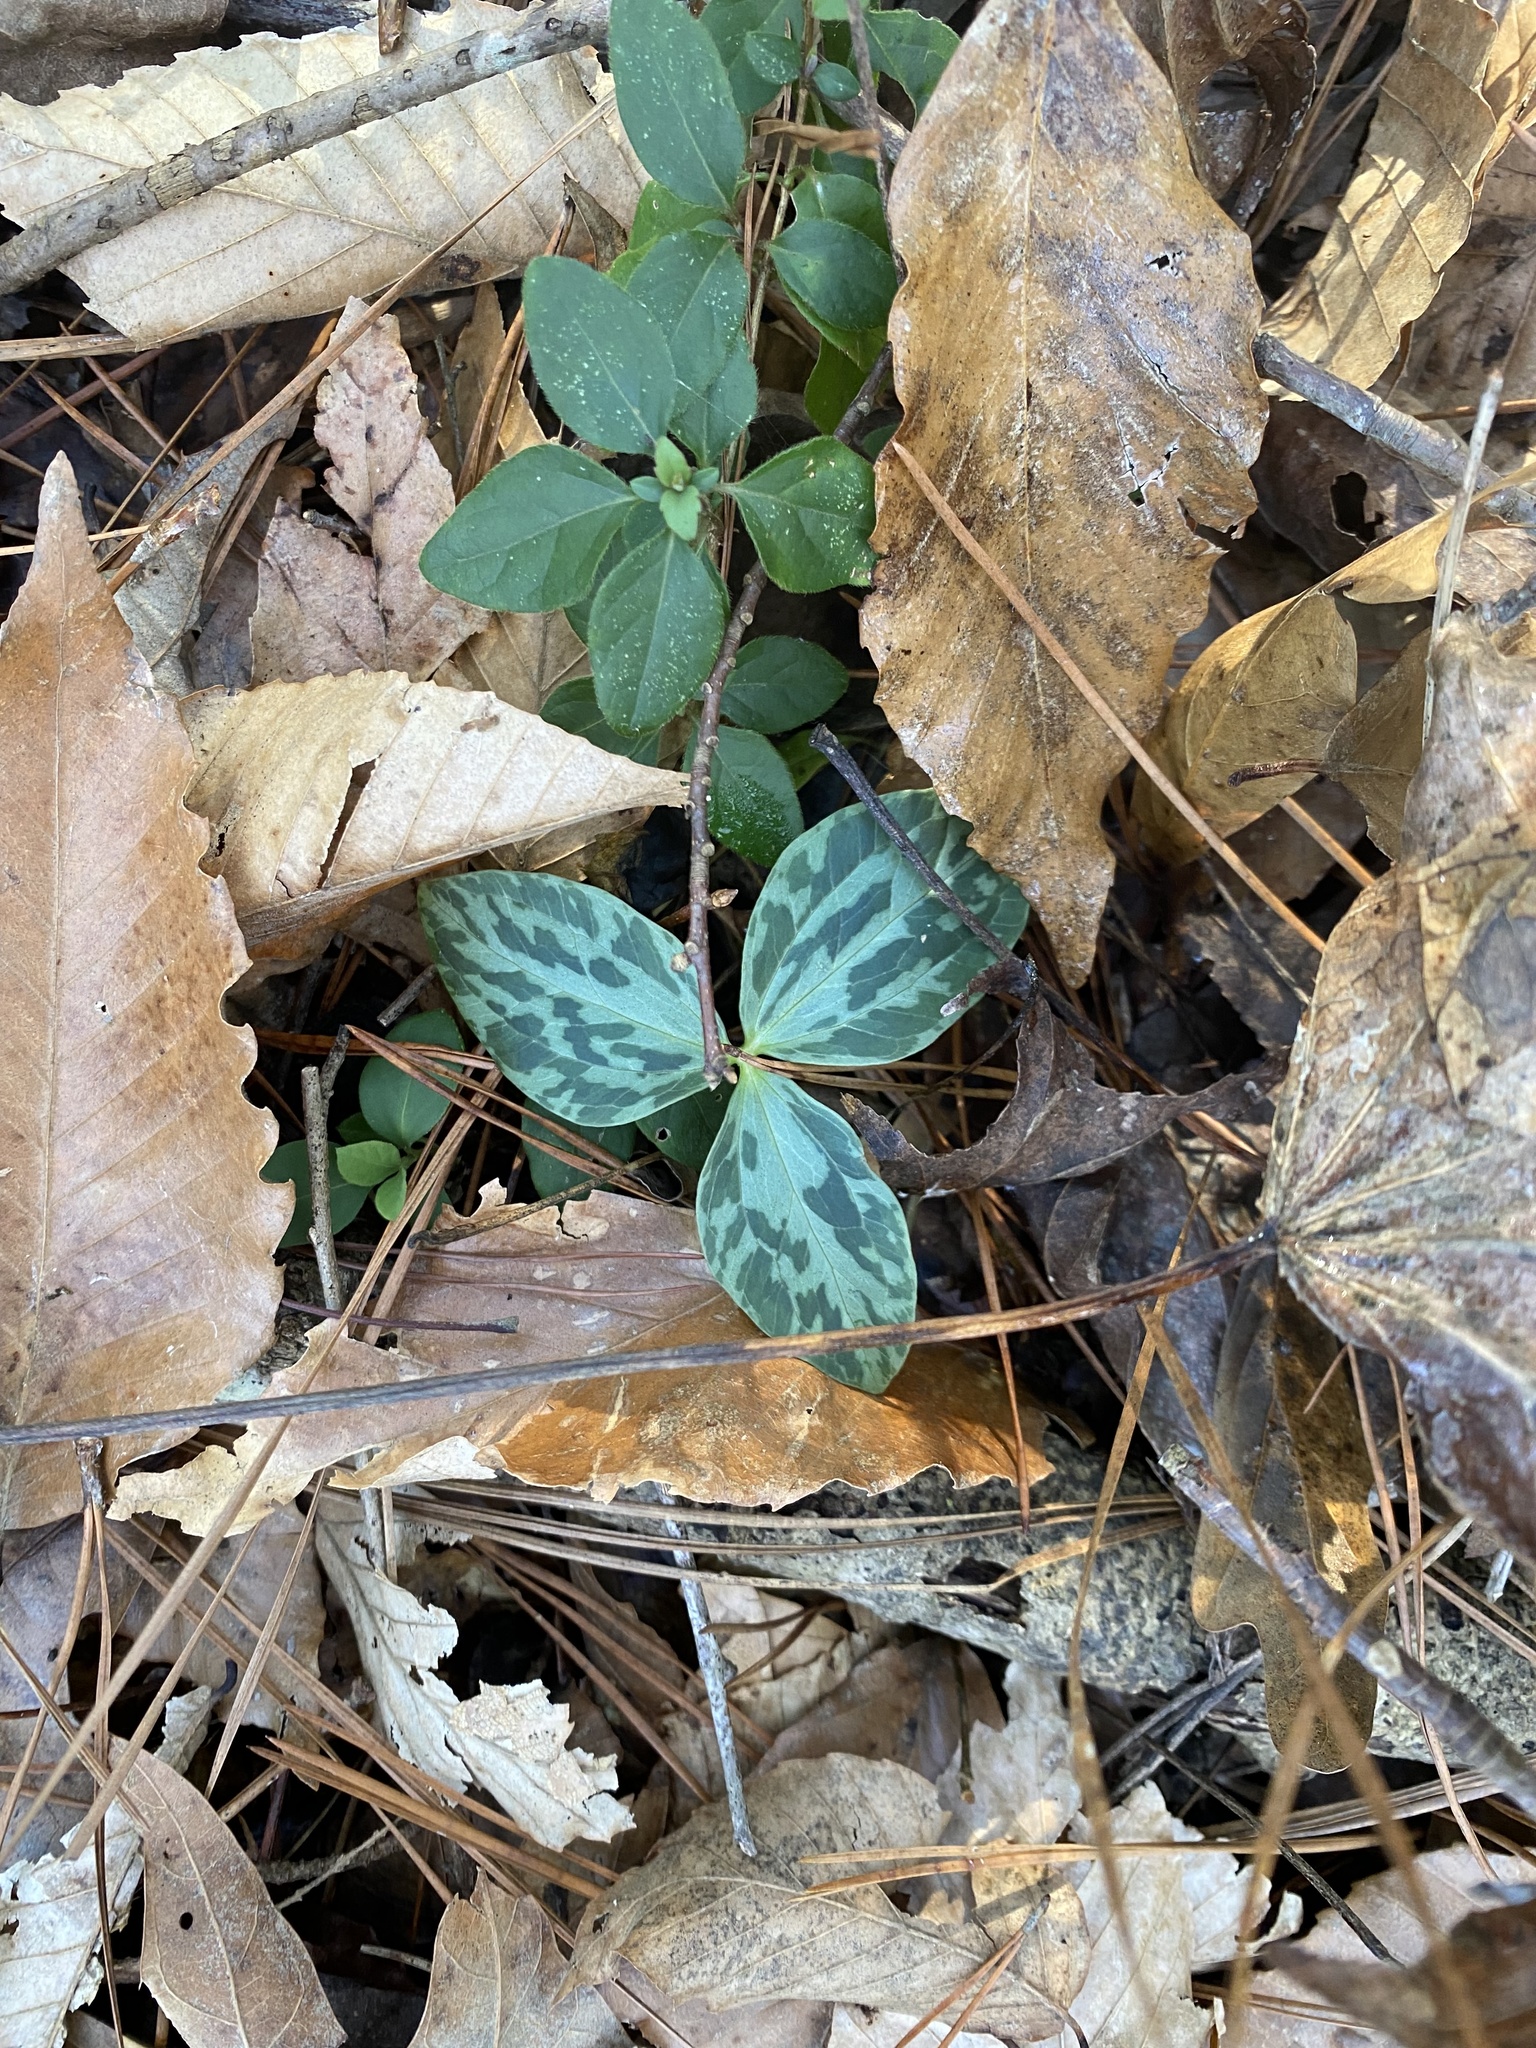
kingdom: Plantae
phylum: Tracheophyta
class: Liliopsida
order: Liliales
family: Melanthiaceae
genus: Trillium
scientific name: Trillium foetidissimum
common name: Mississippi river trillium
